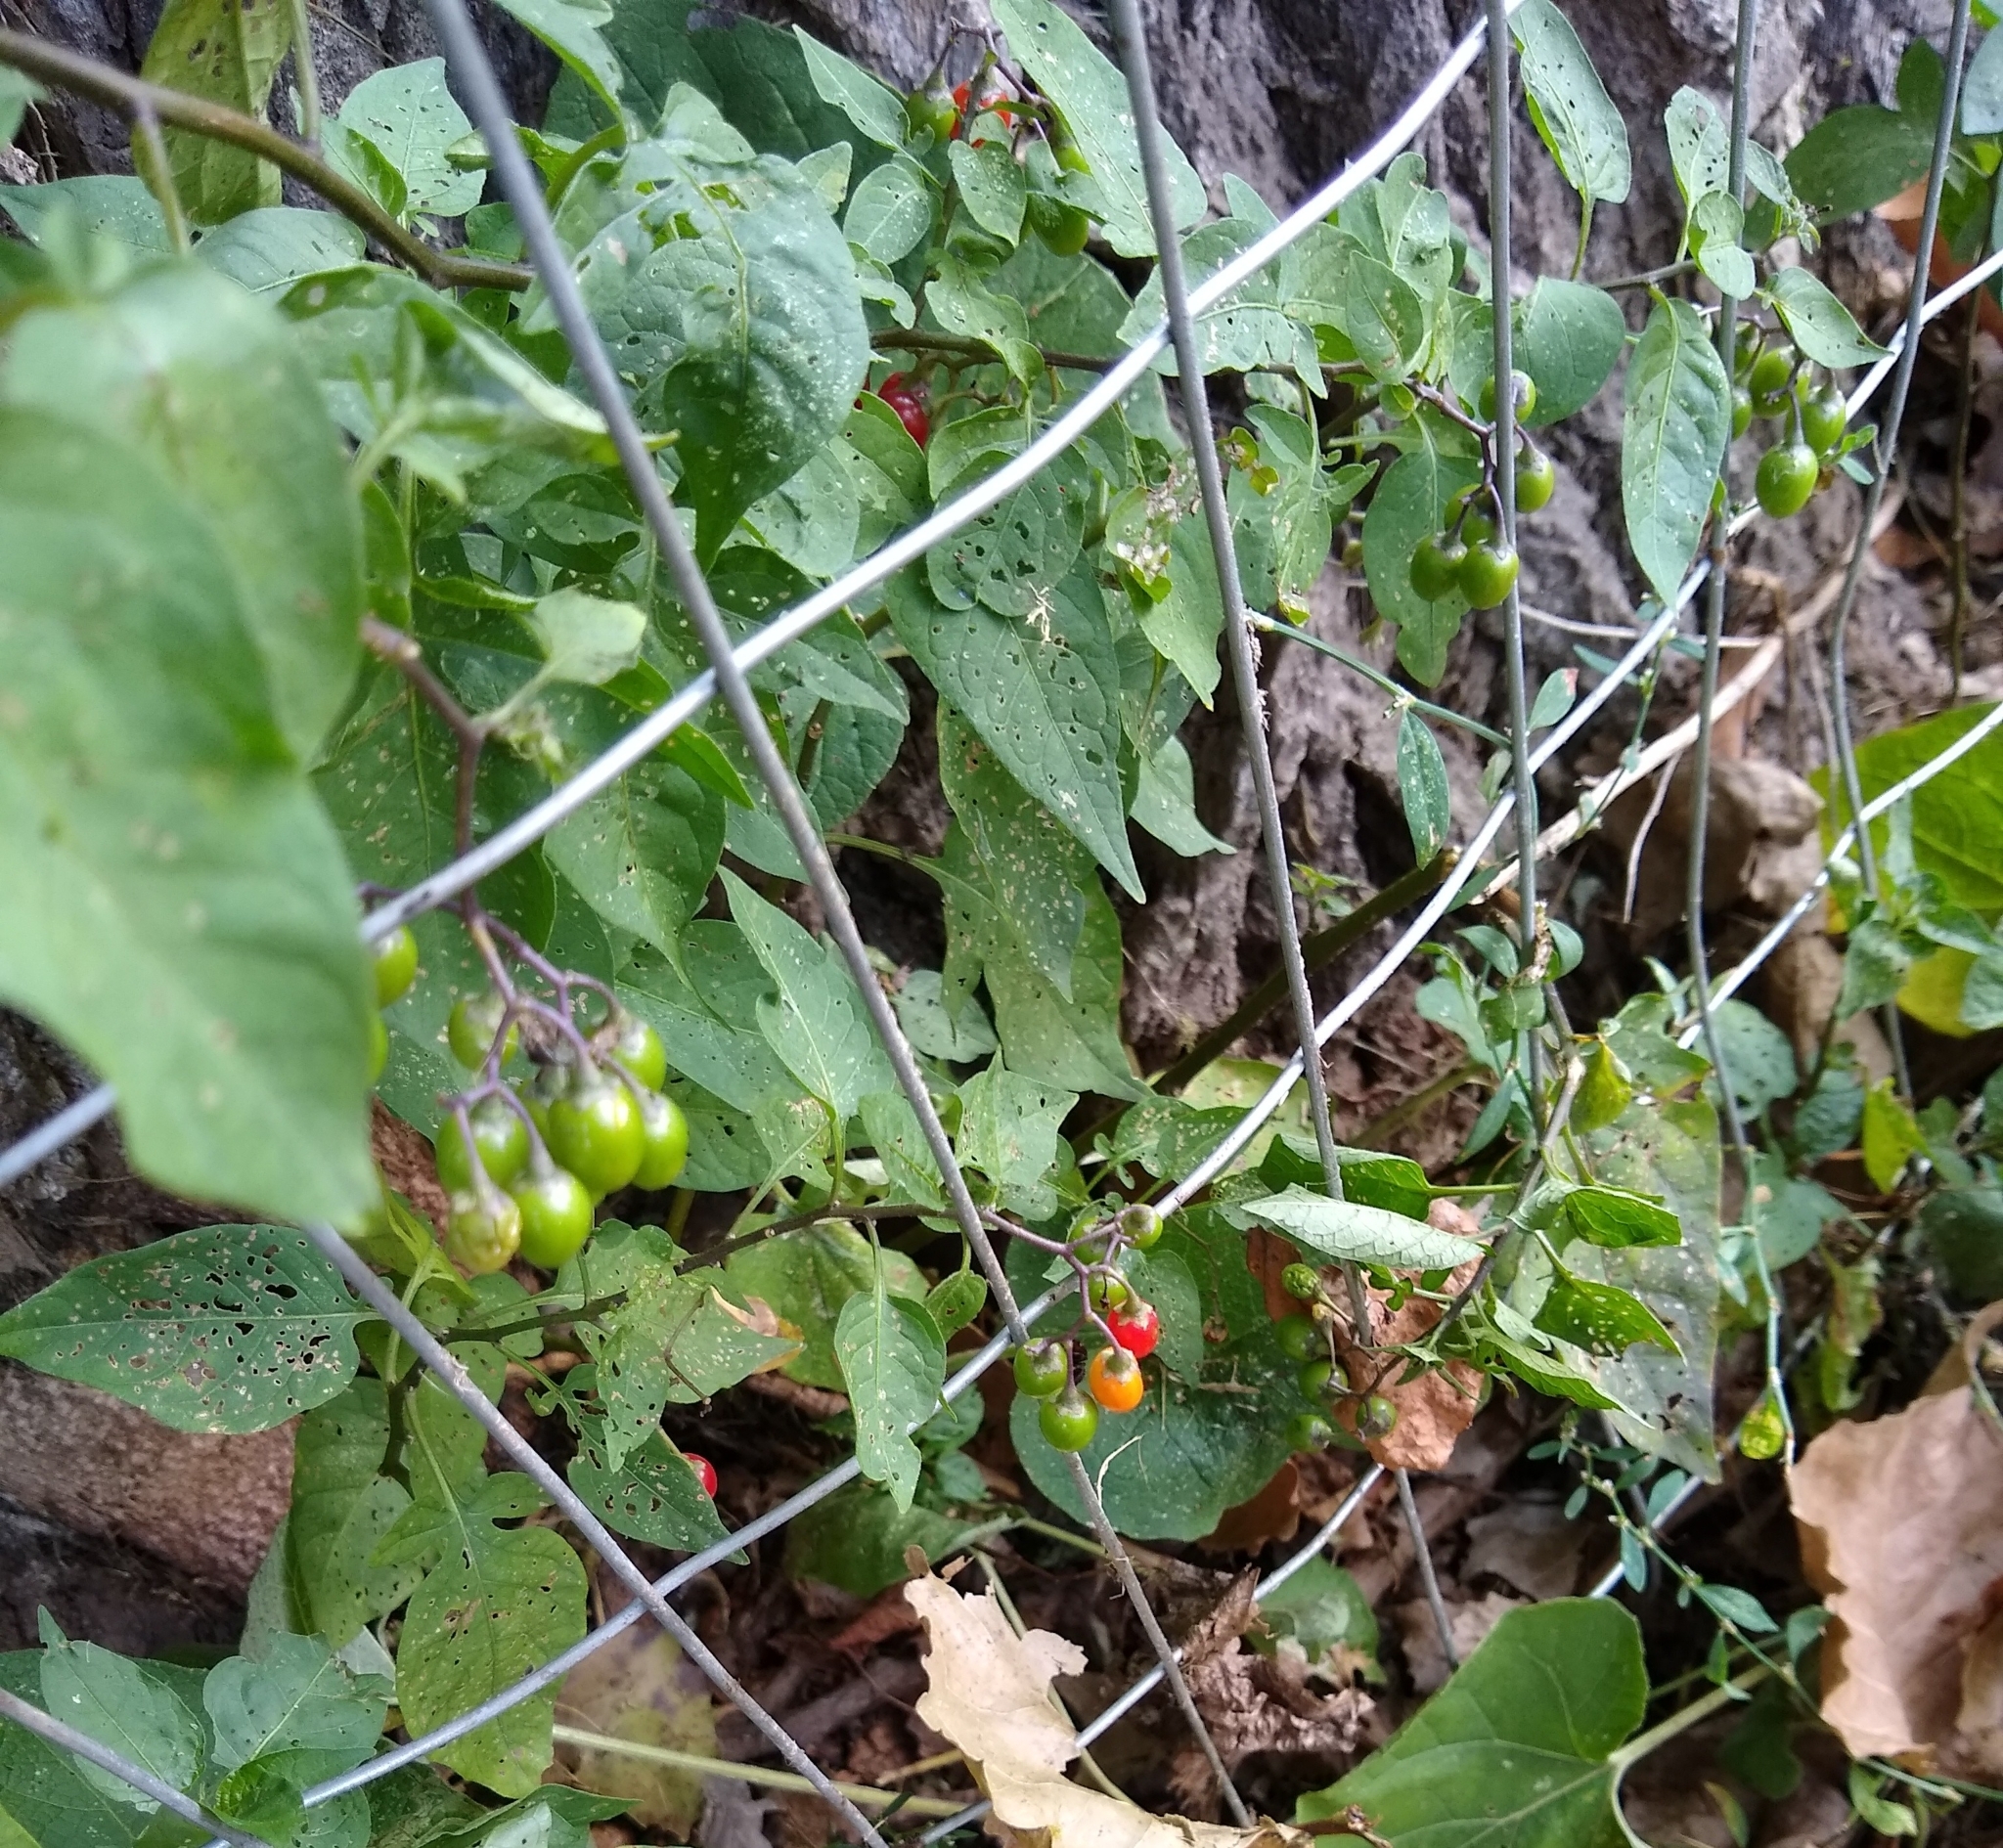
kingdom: Plantae
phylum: Tracheophyta
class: Magnoliopsida
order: Solanales
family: Solanaceae
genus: Solanum
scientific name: Solanum dulcamara
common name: Climbing nightshade
